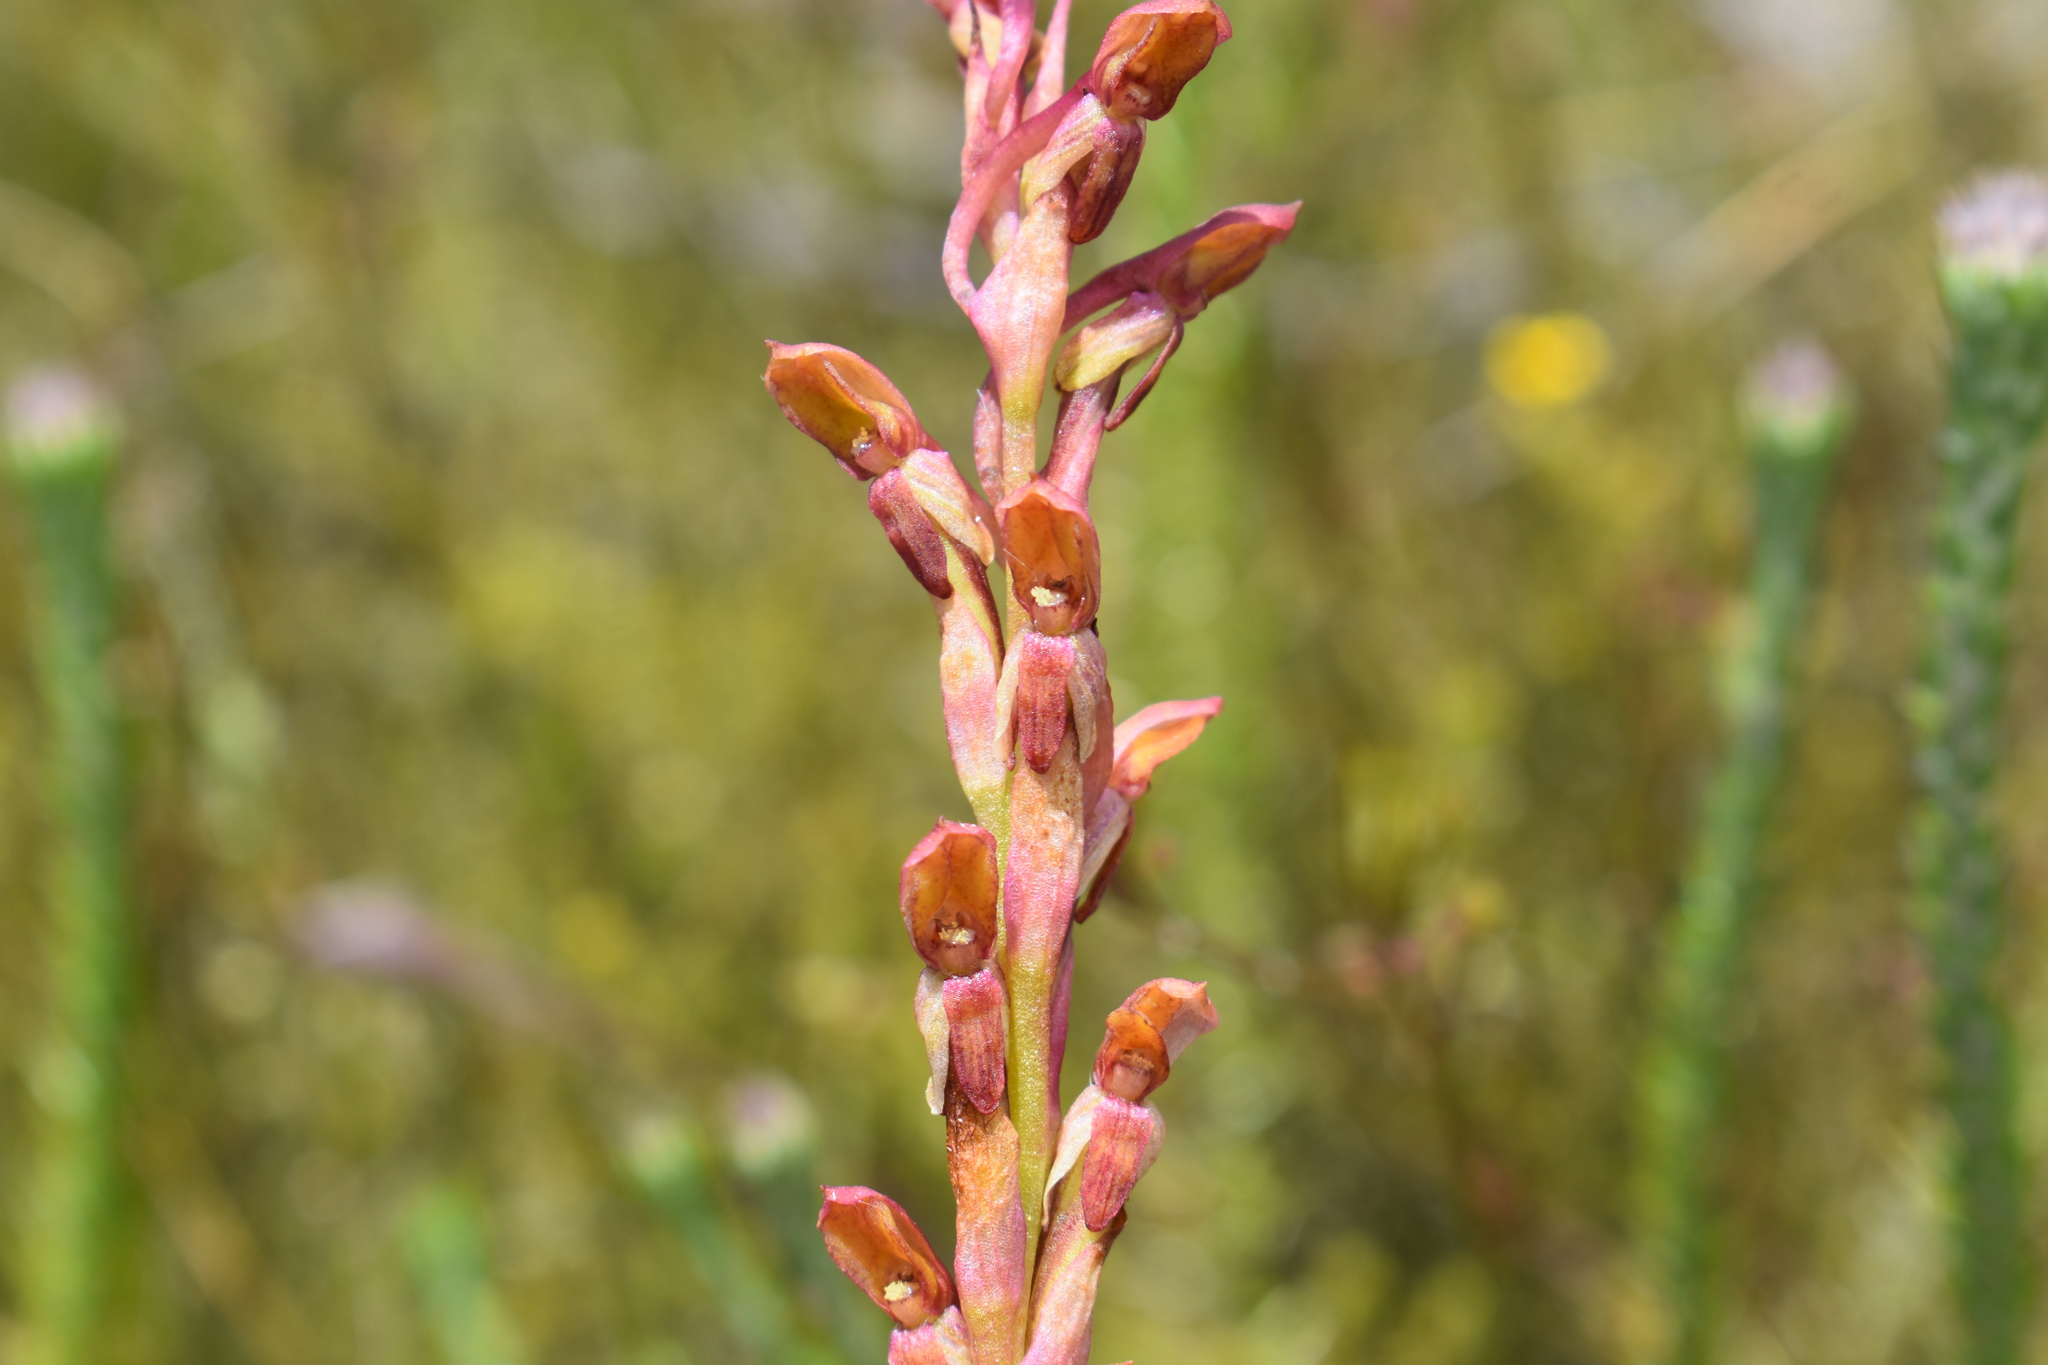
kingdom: Plantae
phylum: Tracheophyta
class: Liliopsida
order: Asparagales
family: Orchidaceae
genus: Disa
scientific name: Disa reticulata
